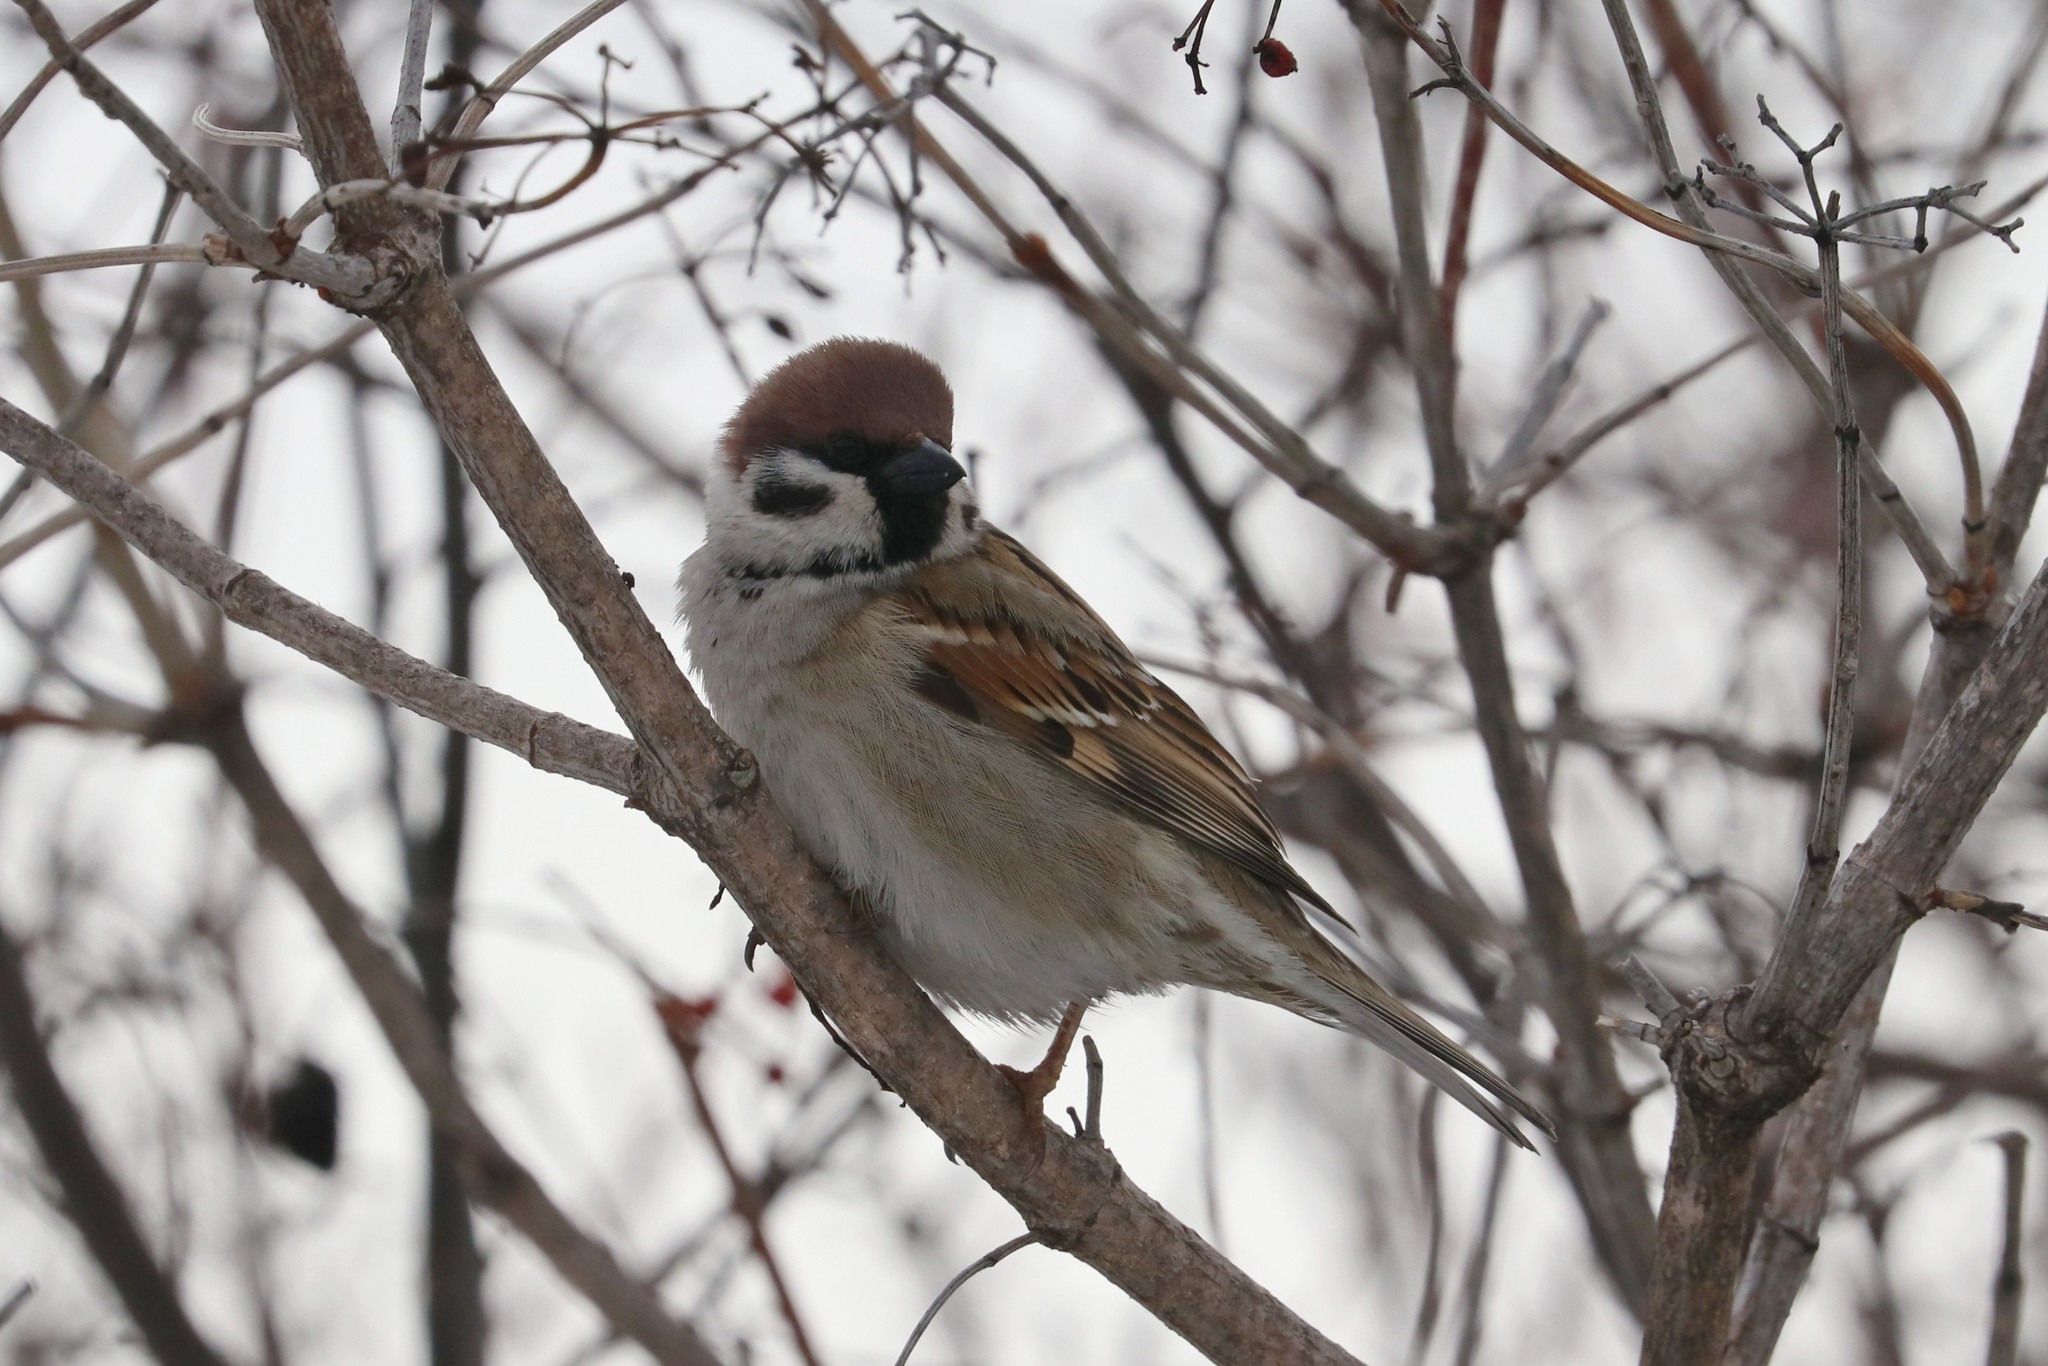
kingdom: Animalia
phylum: Chordata
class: Aves
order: Passeriformes
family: Passeridae
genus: Passer
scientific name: Passer montanus
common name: Eurasian tree sparrow
